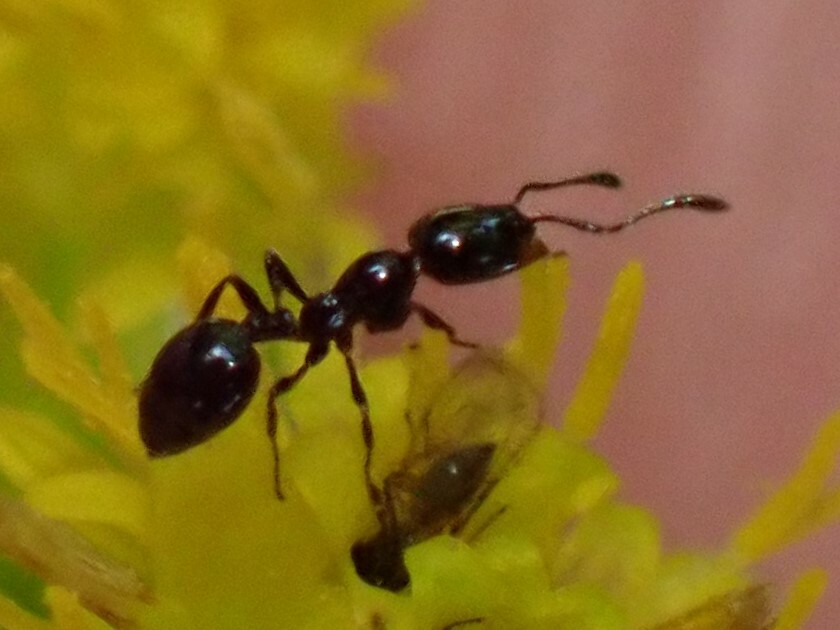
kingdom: Animalia
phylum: Arthropoda
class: Insecta
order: Hymenoptera
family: Formicidae
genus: Monomorium
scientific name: Monomorium
